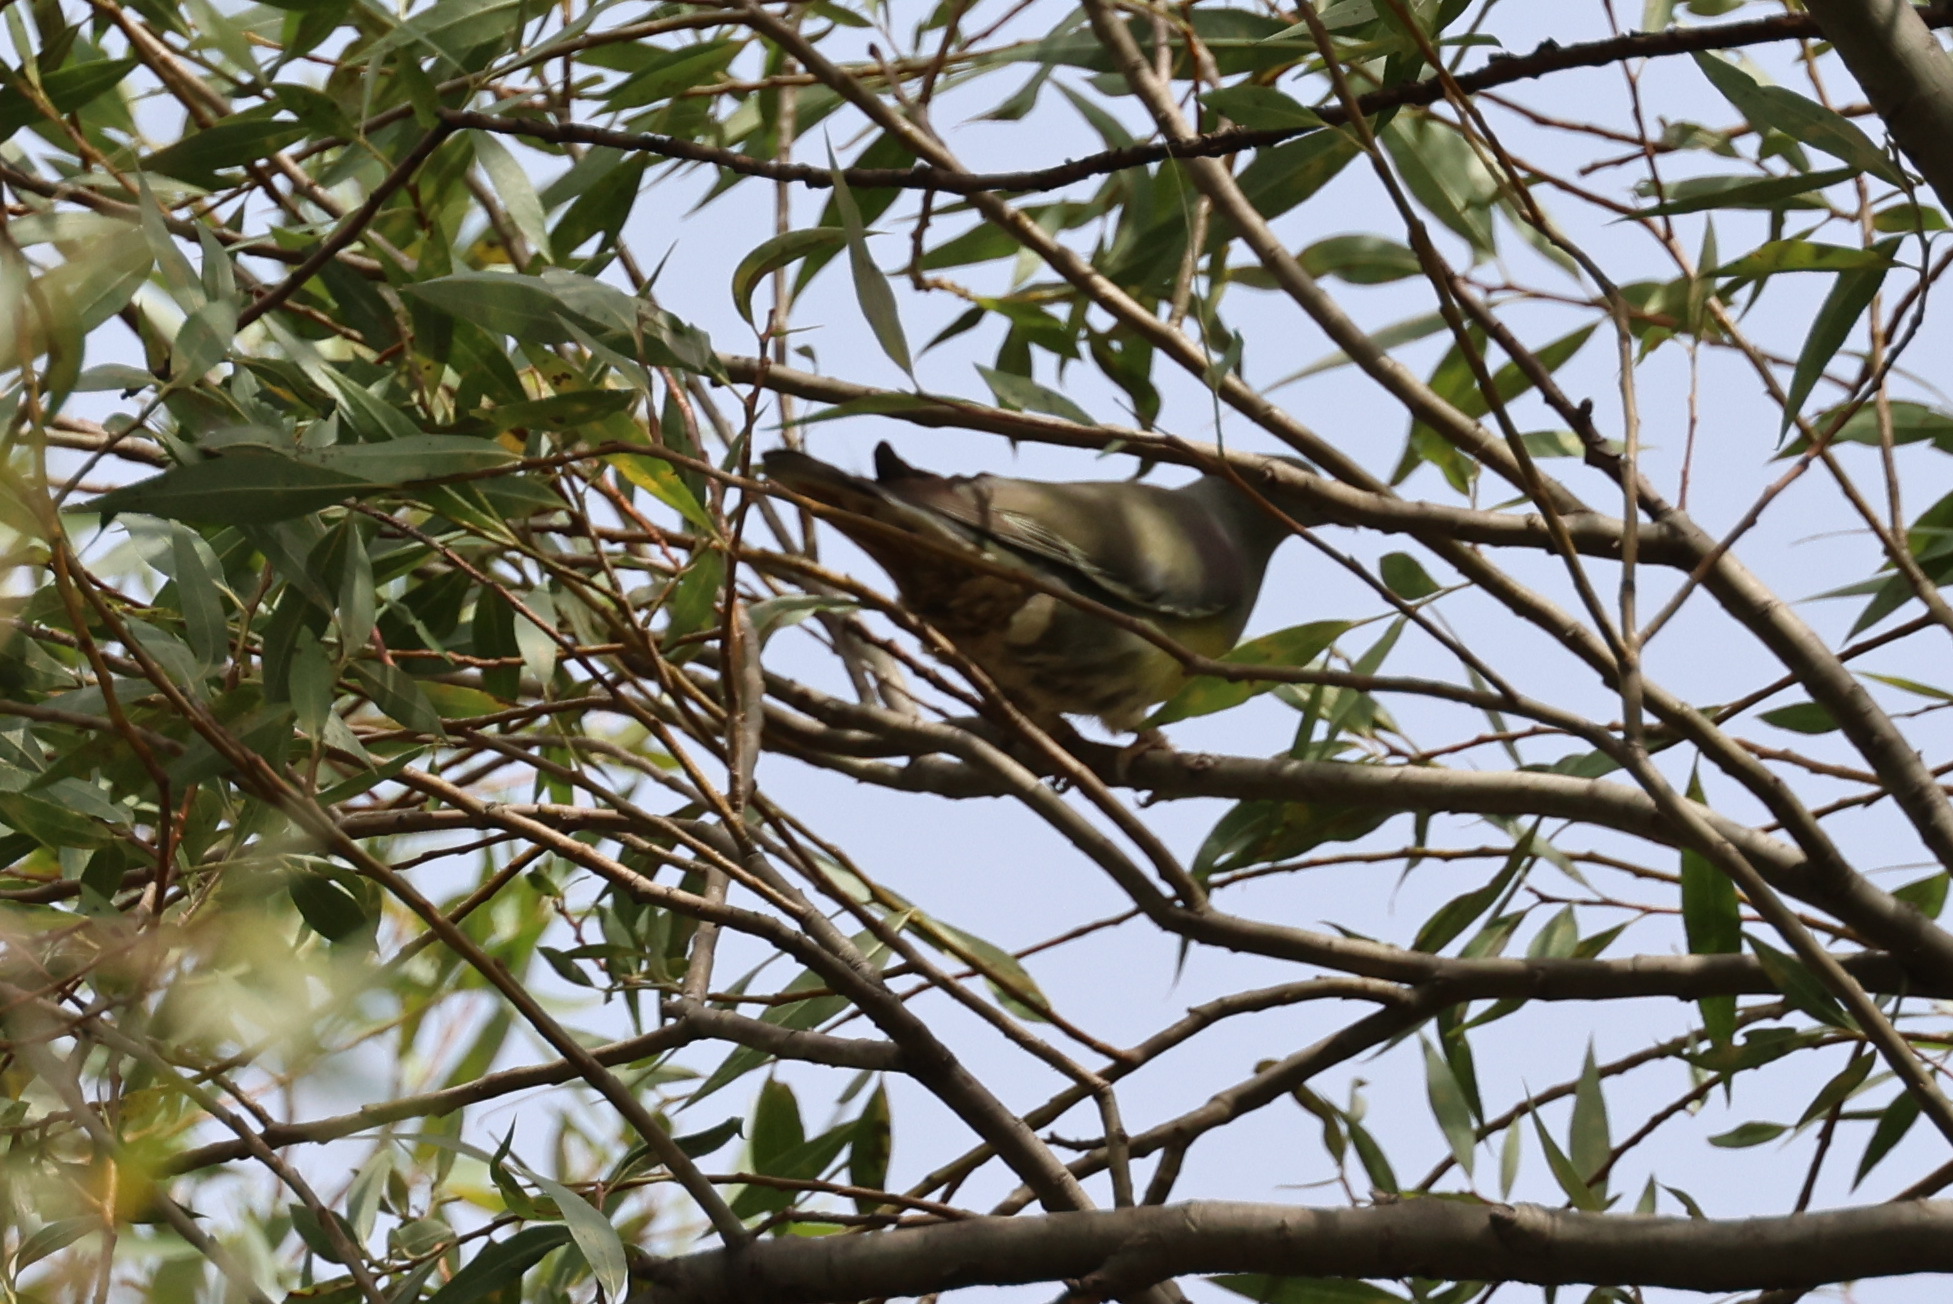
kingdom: Animalia
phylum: Chordata
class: Aves
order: Columbiformes
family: Columbidae
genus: Treron
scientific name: Treron waalia
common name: Bruce's green pigeon
